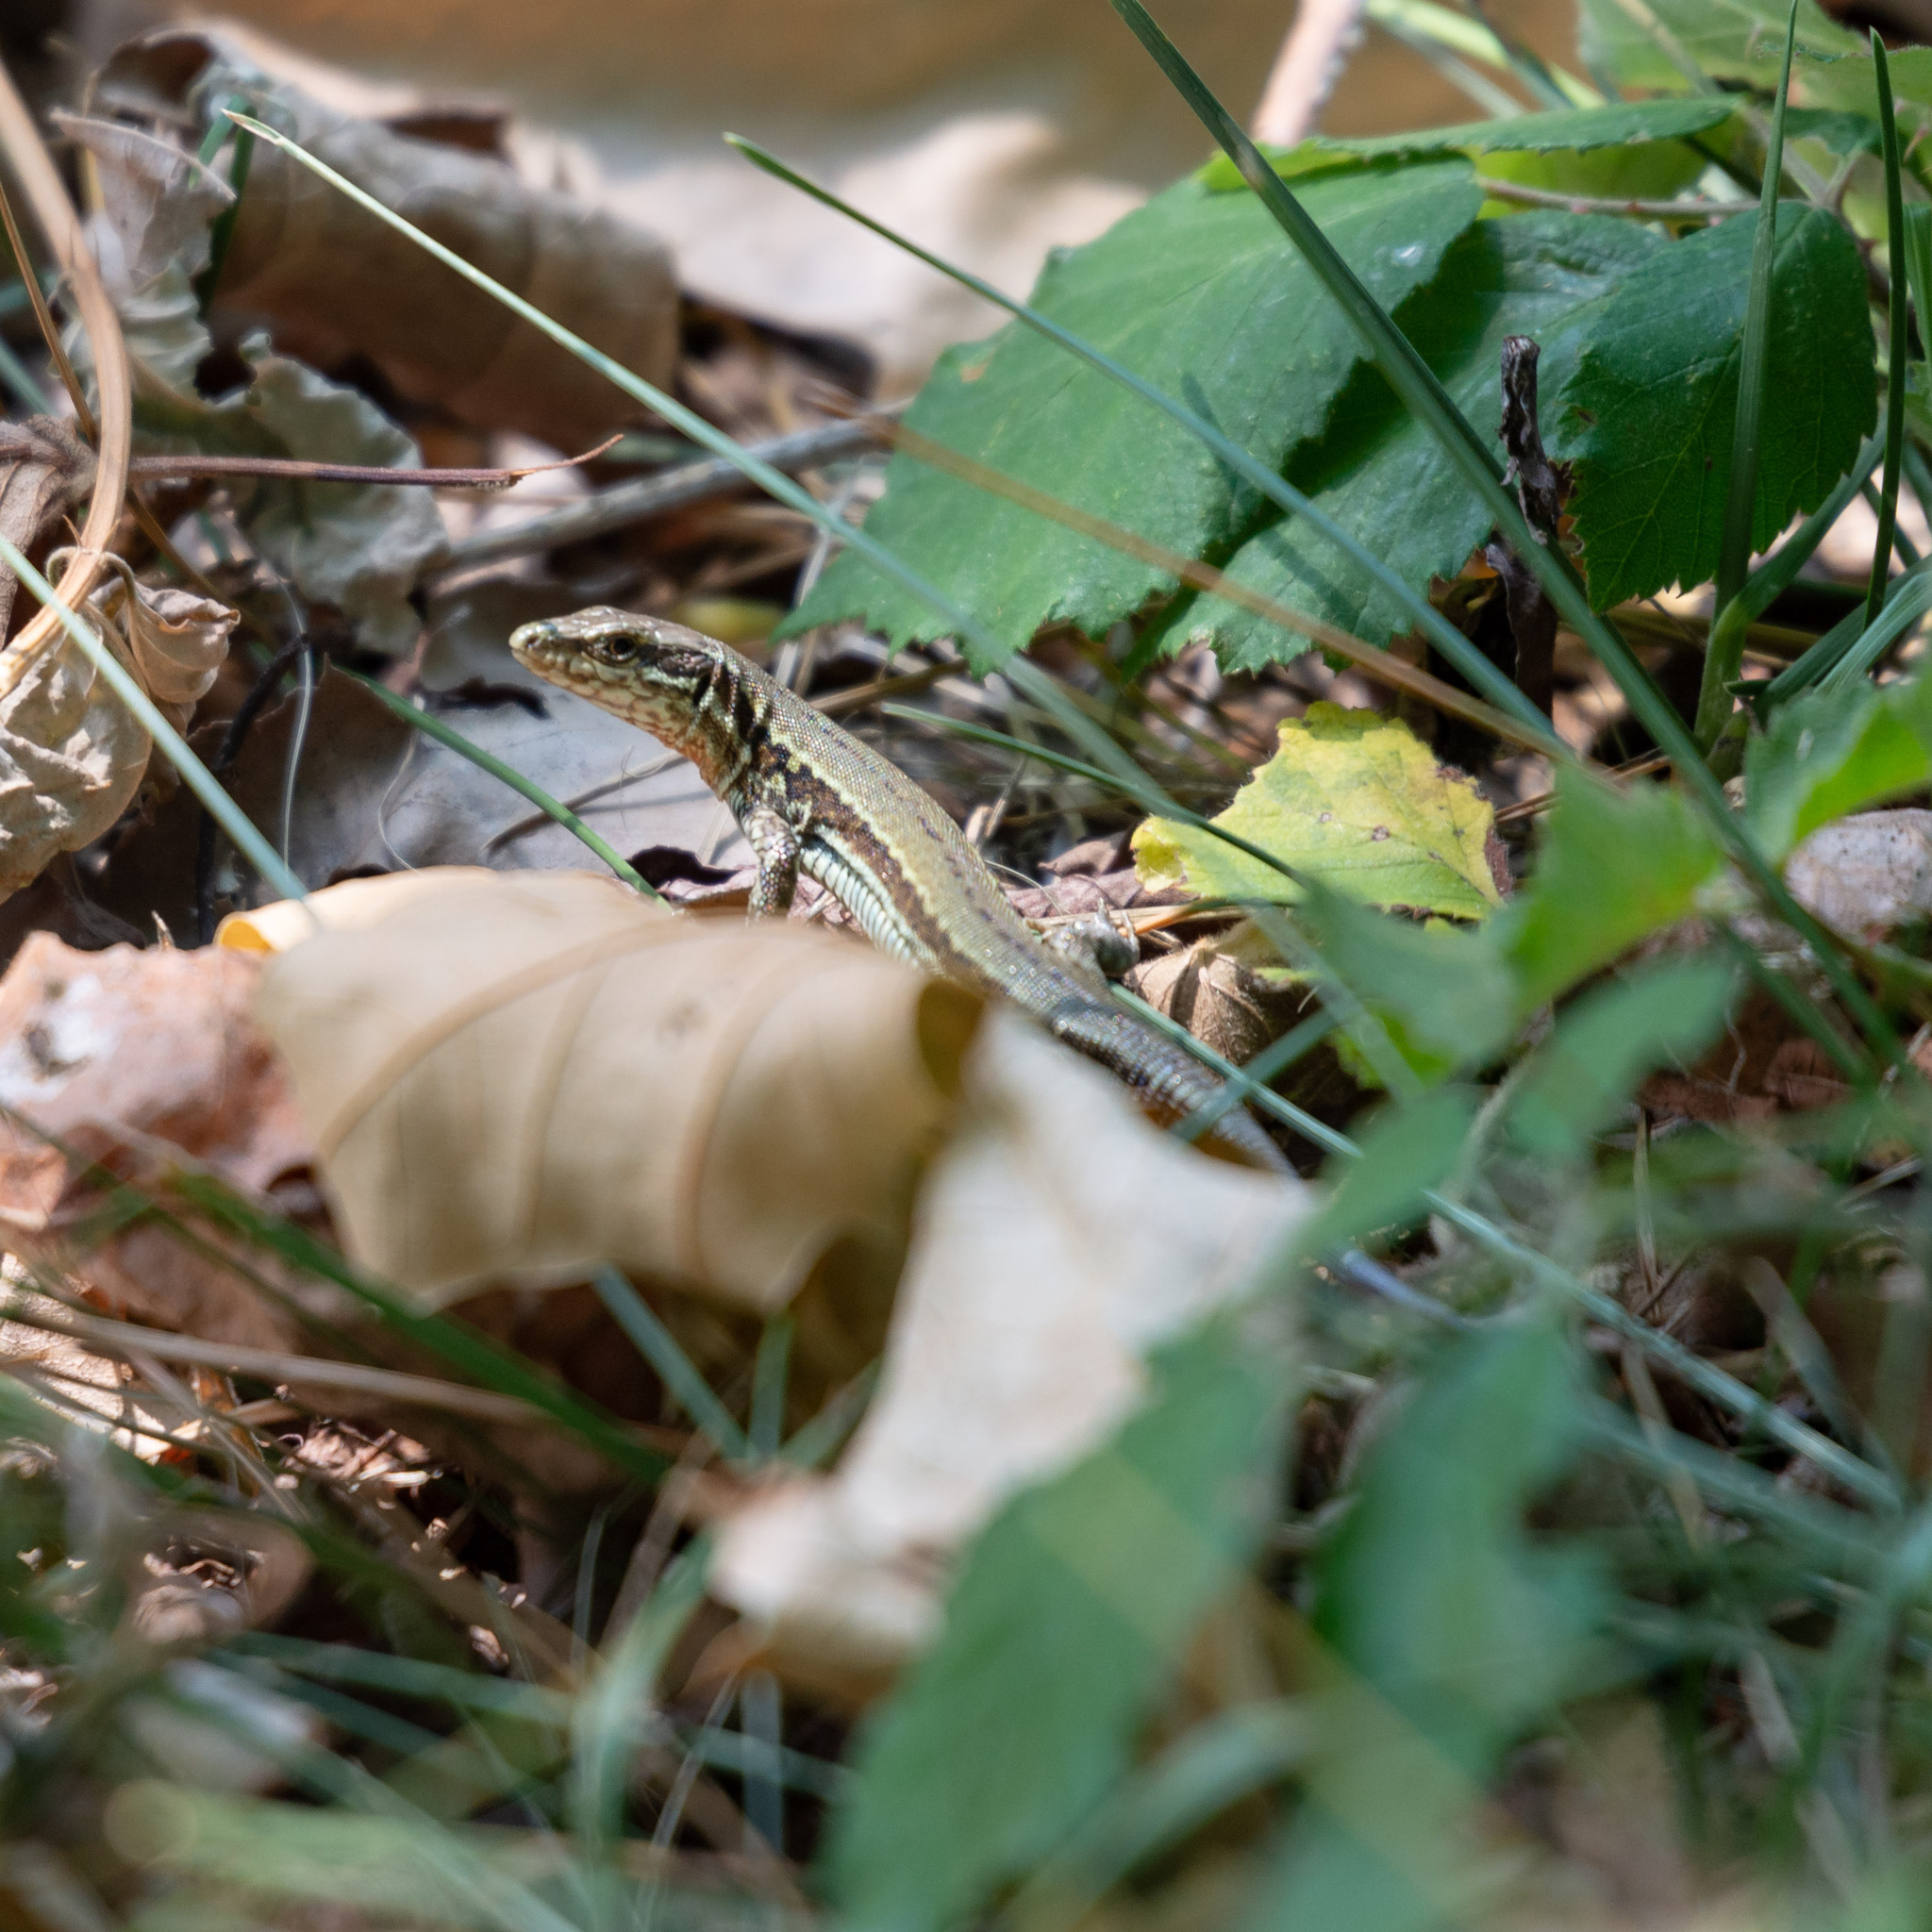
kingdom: Animalia
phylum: Chordata
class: Squamata
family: Lacertidae
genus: Podarcis
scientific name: Podarcis muralis
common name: Common wall lizard
